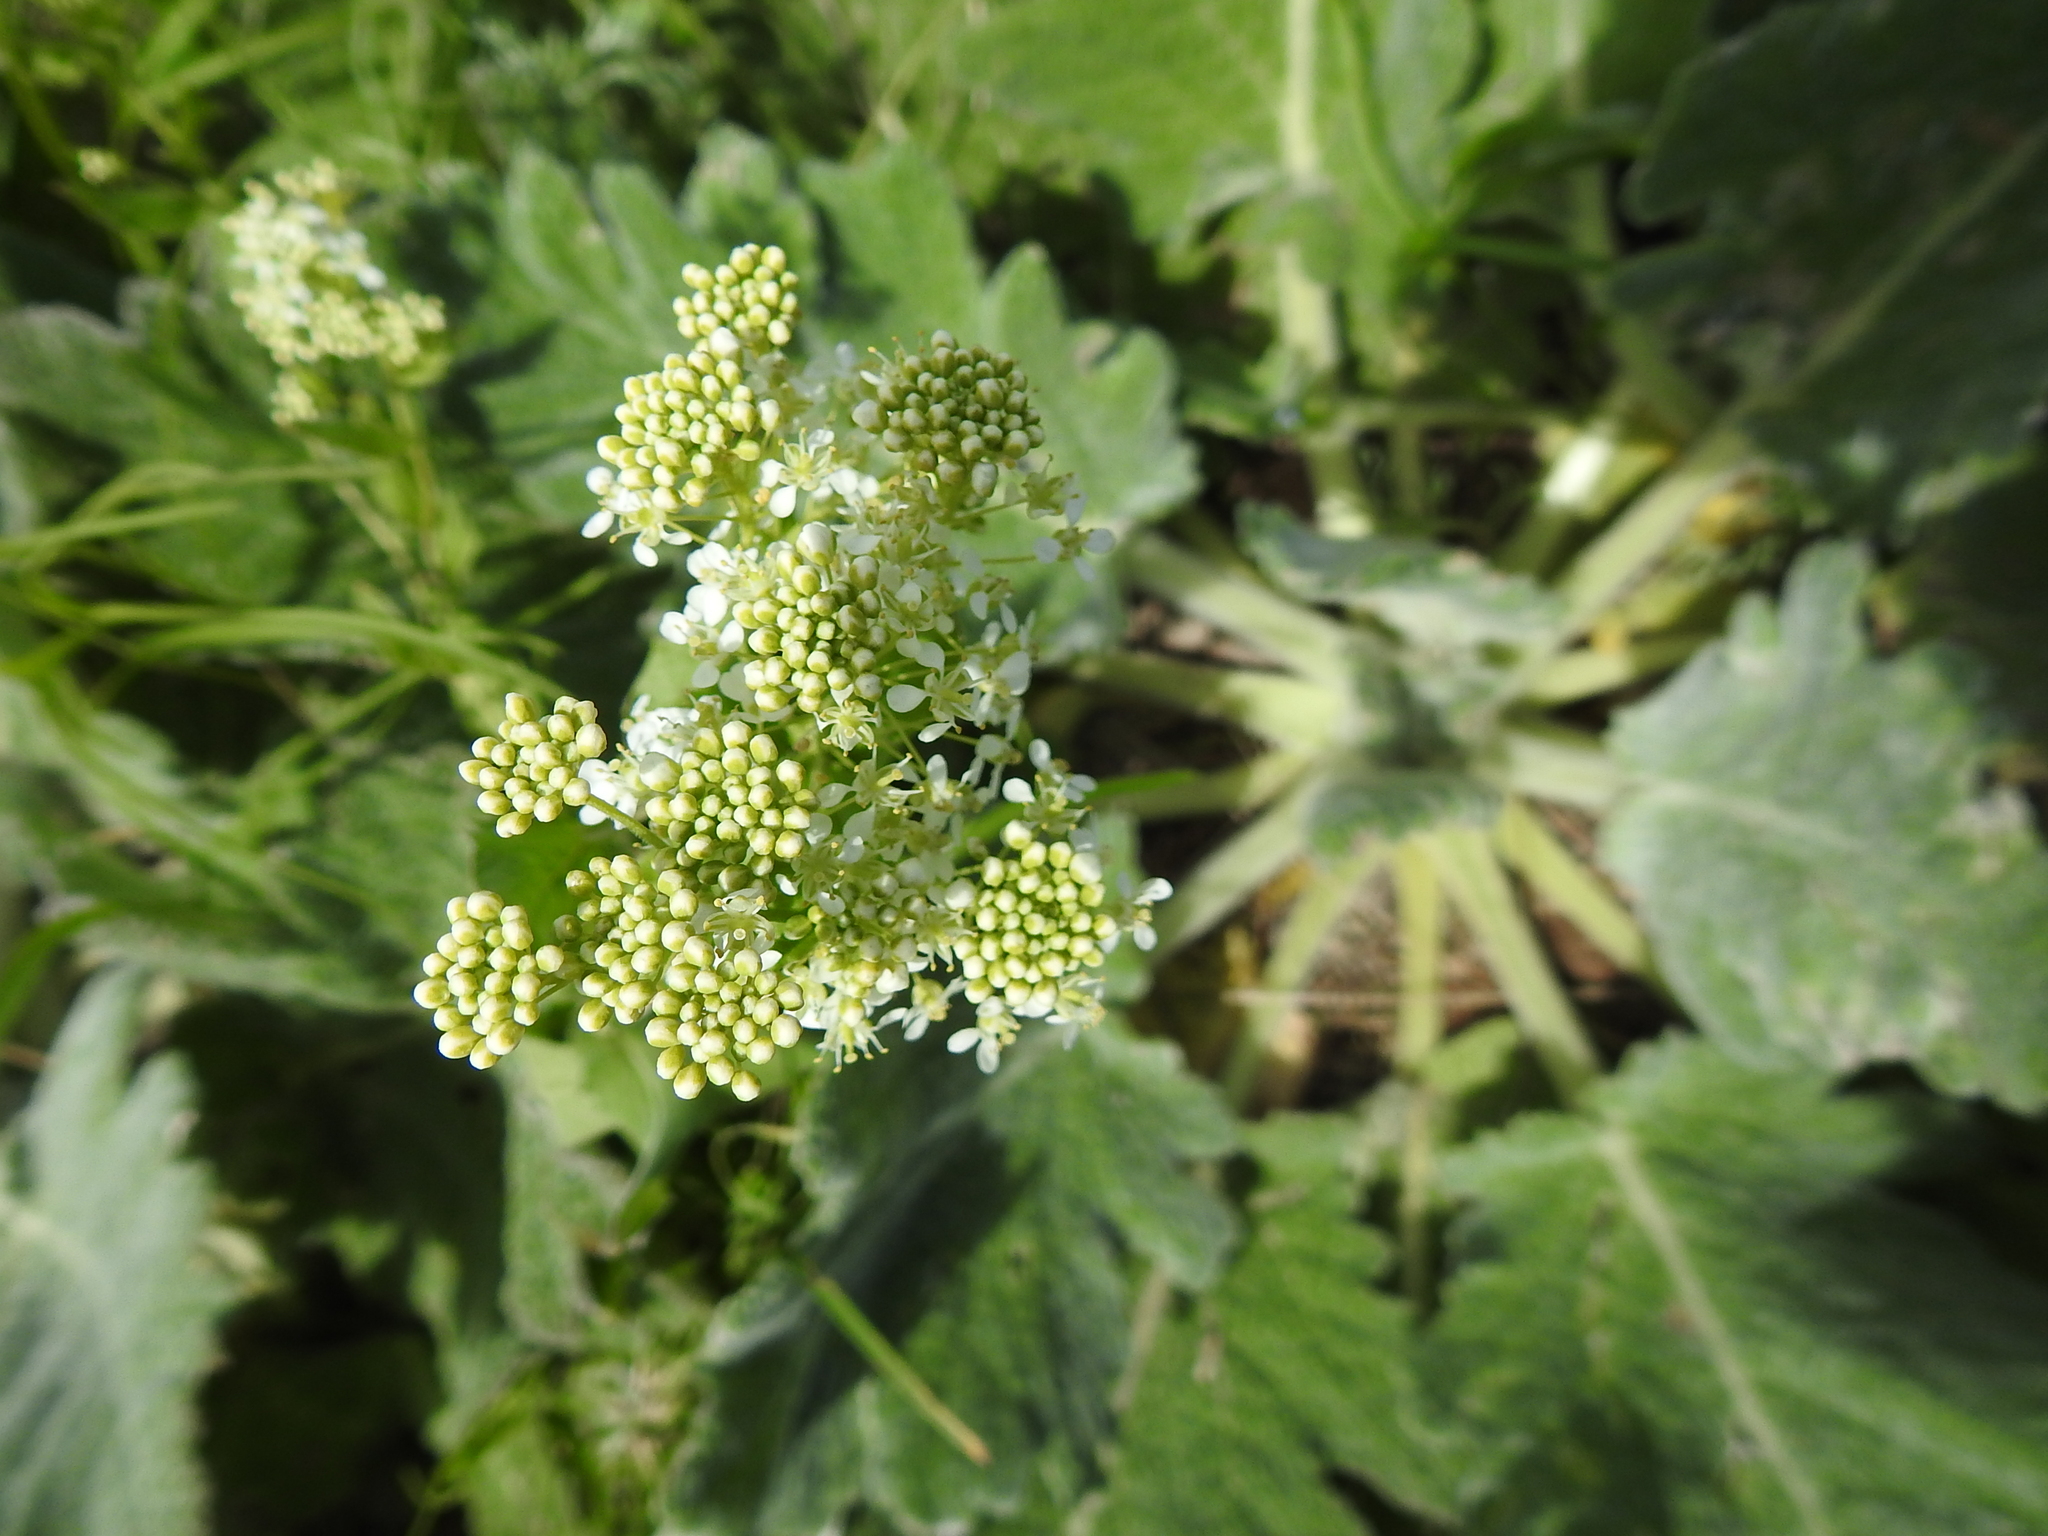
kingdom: Plantae
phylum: Tracheophyta
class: Magnoliopsida
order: Brassicales
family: Brassicaceae
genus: Lepidium
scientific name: Lepidium draba
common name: Hoary cress
